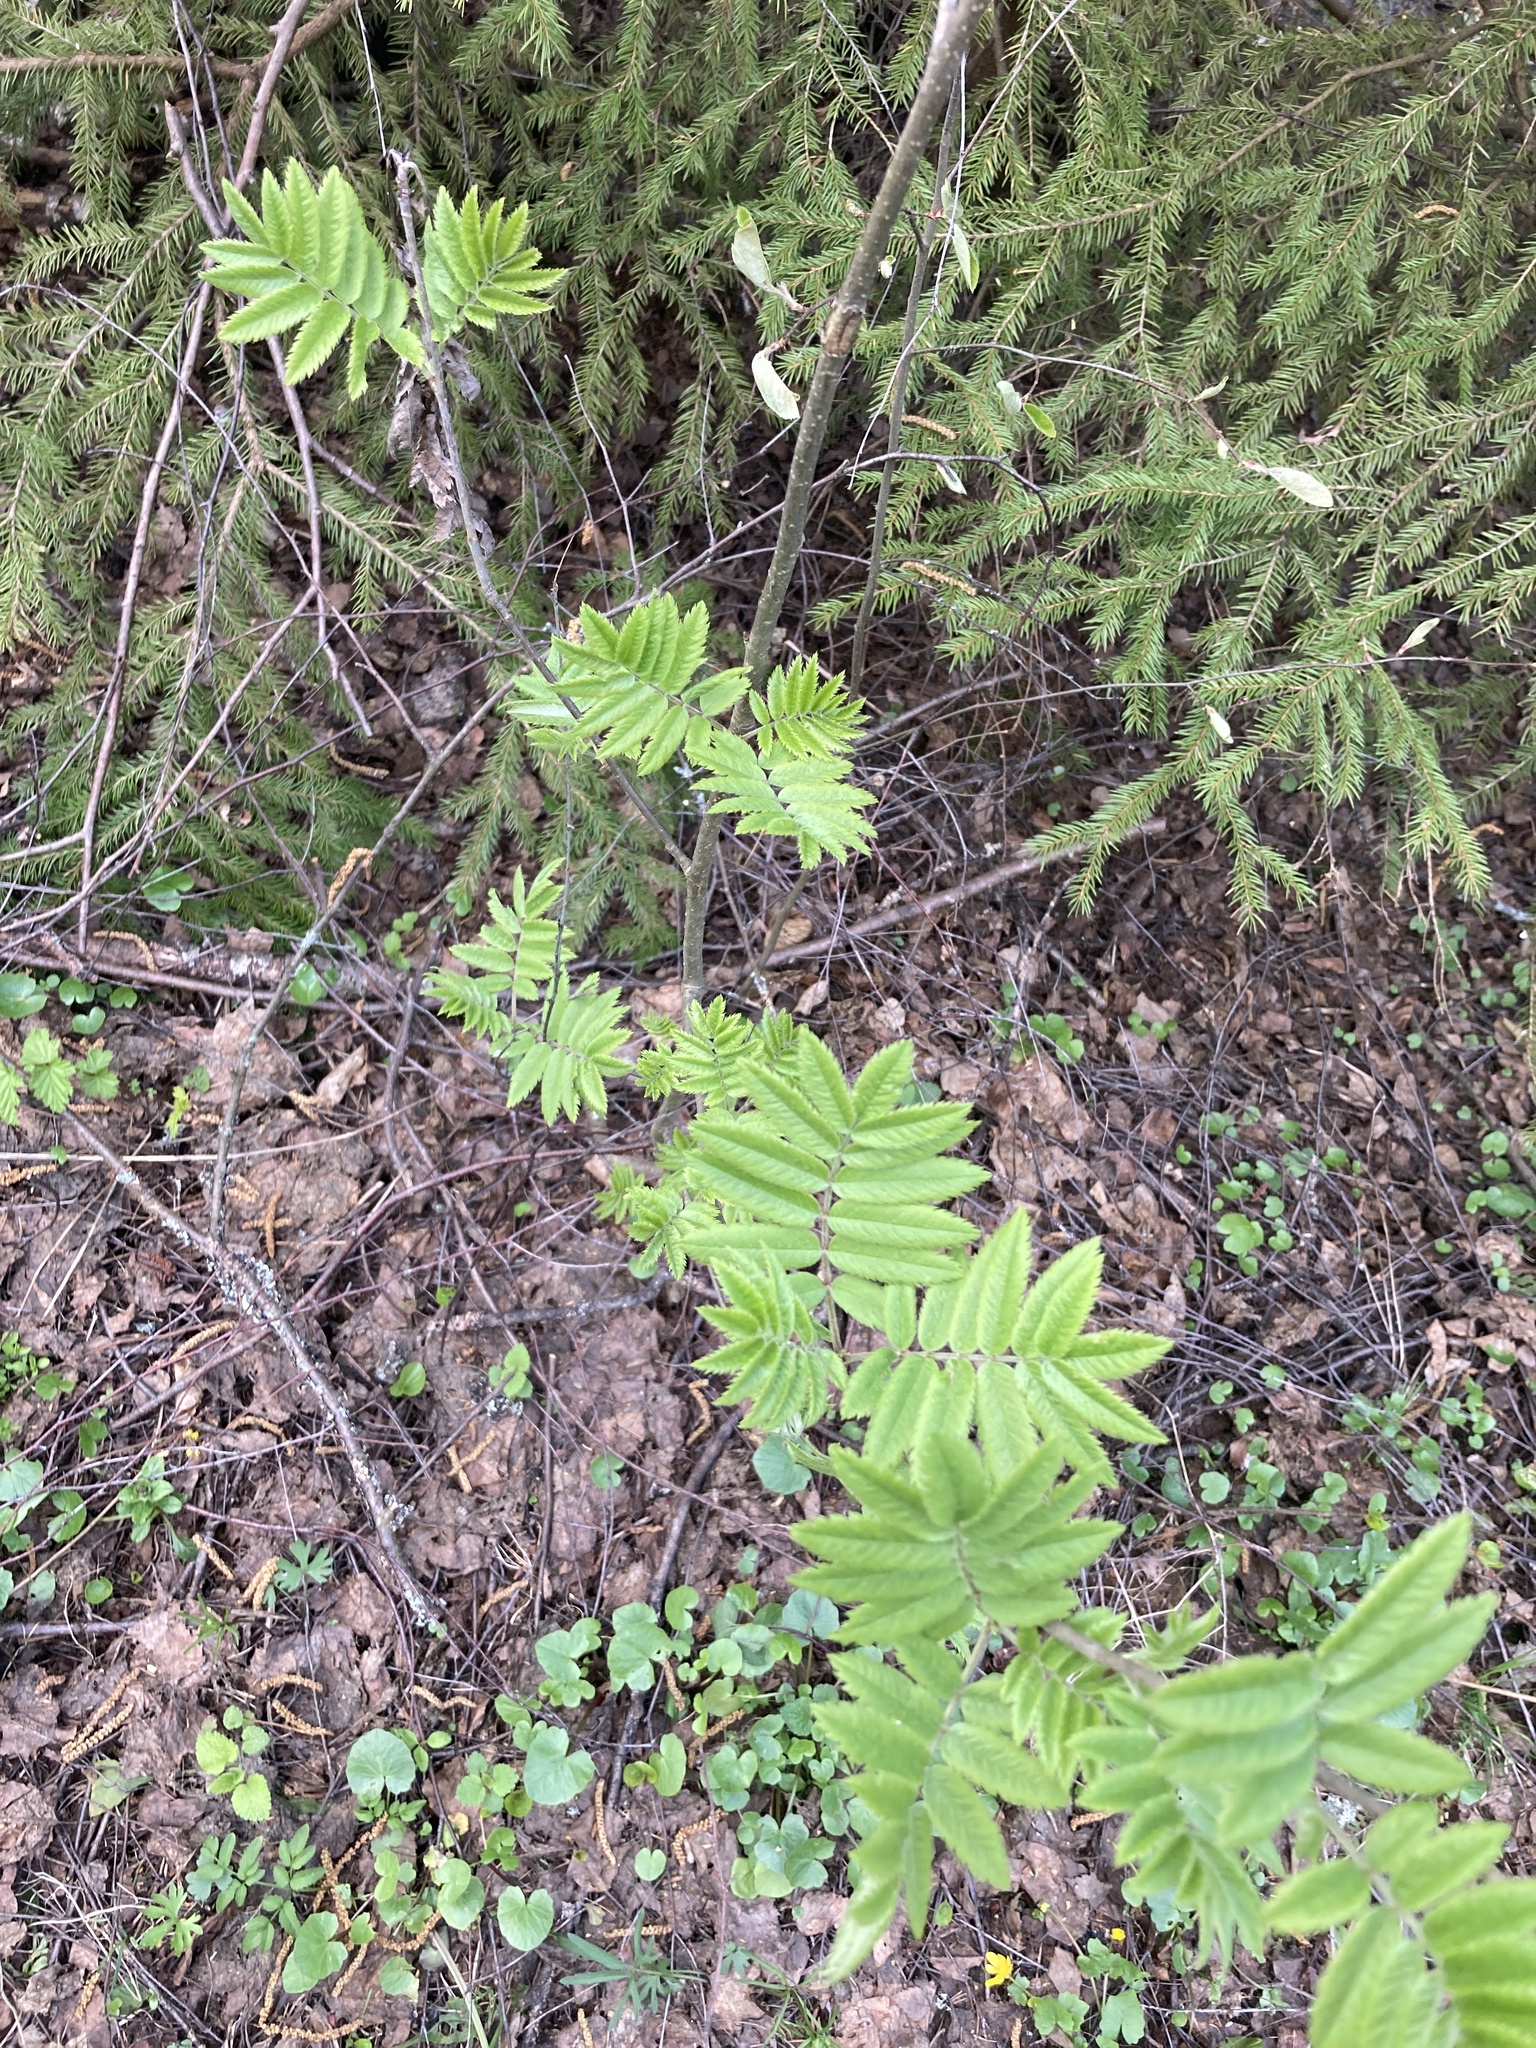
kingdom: Plantae
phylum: Tracheophyta
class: Magnoliopsida
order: Rosales
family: Rosaceae
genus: Sorbus
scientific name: Sorbus aucuparia
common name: Rowan
